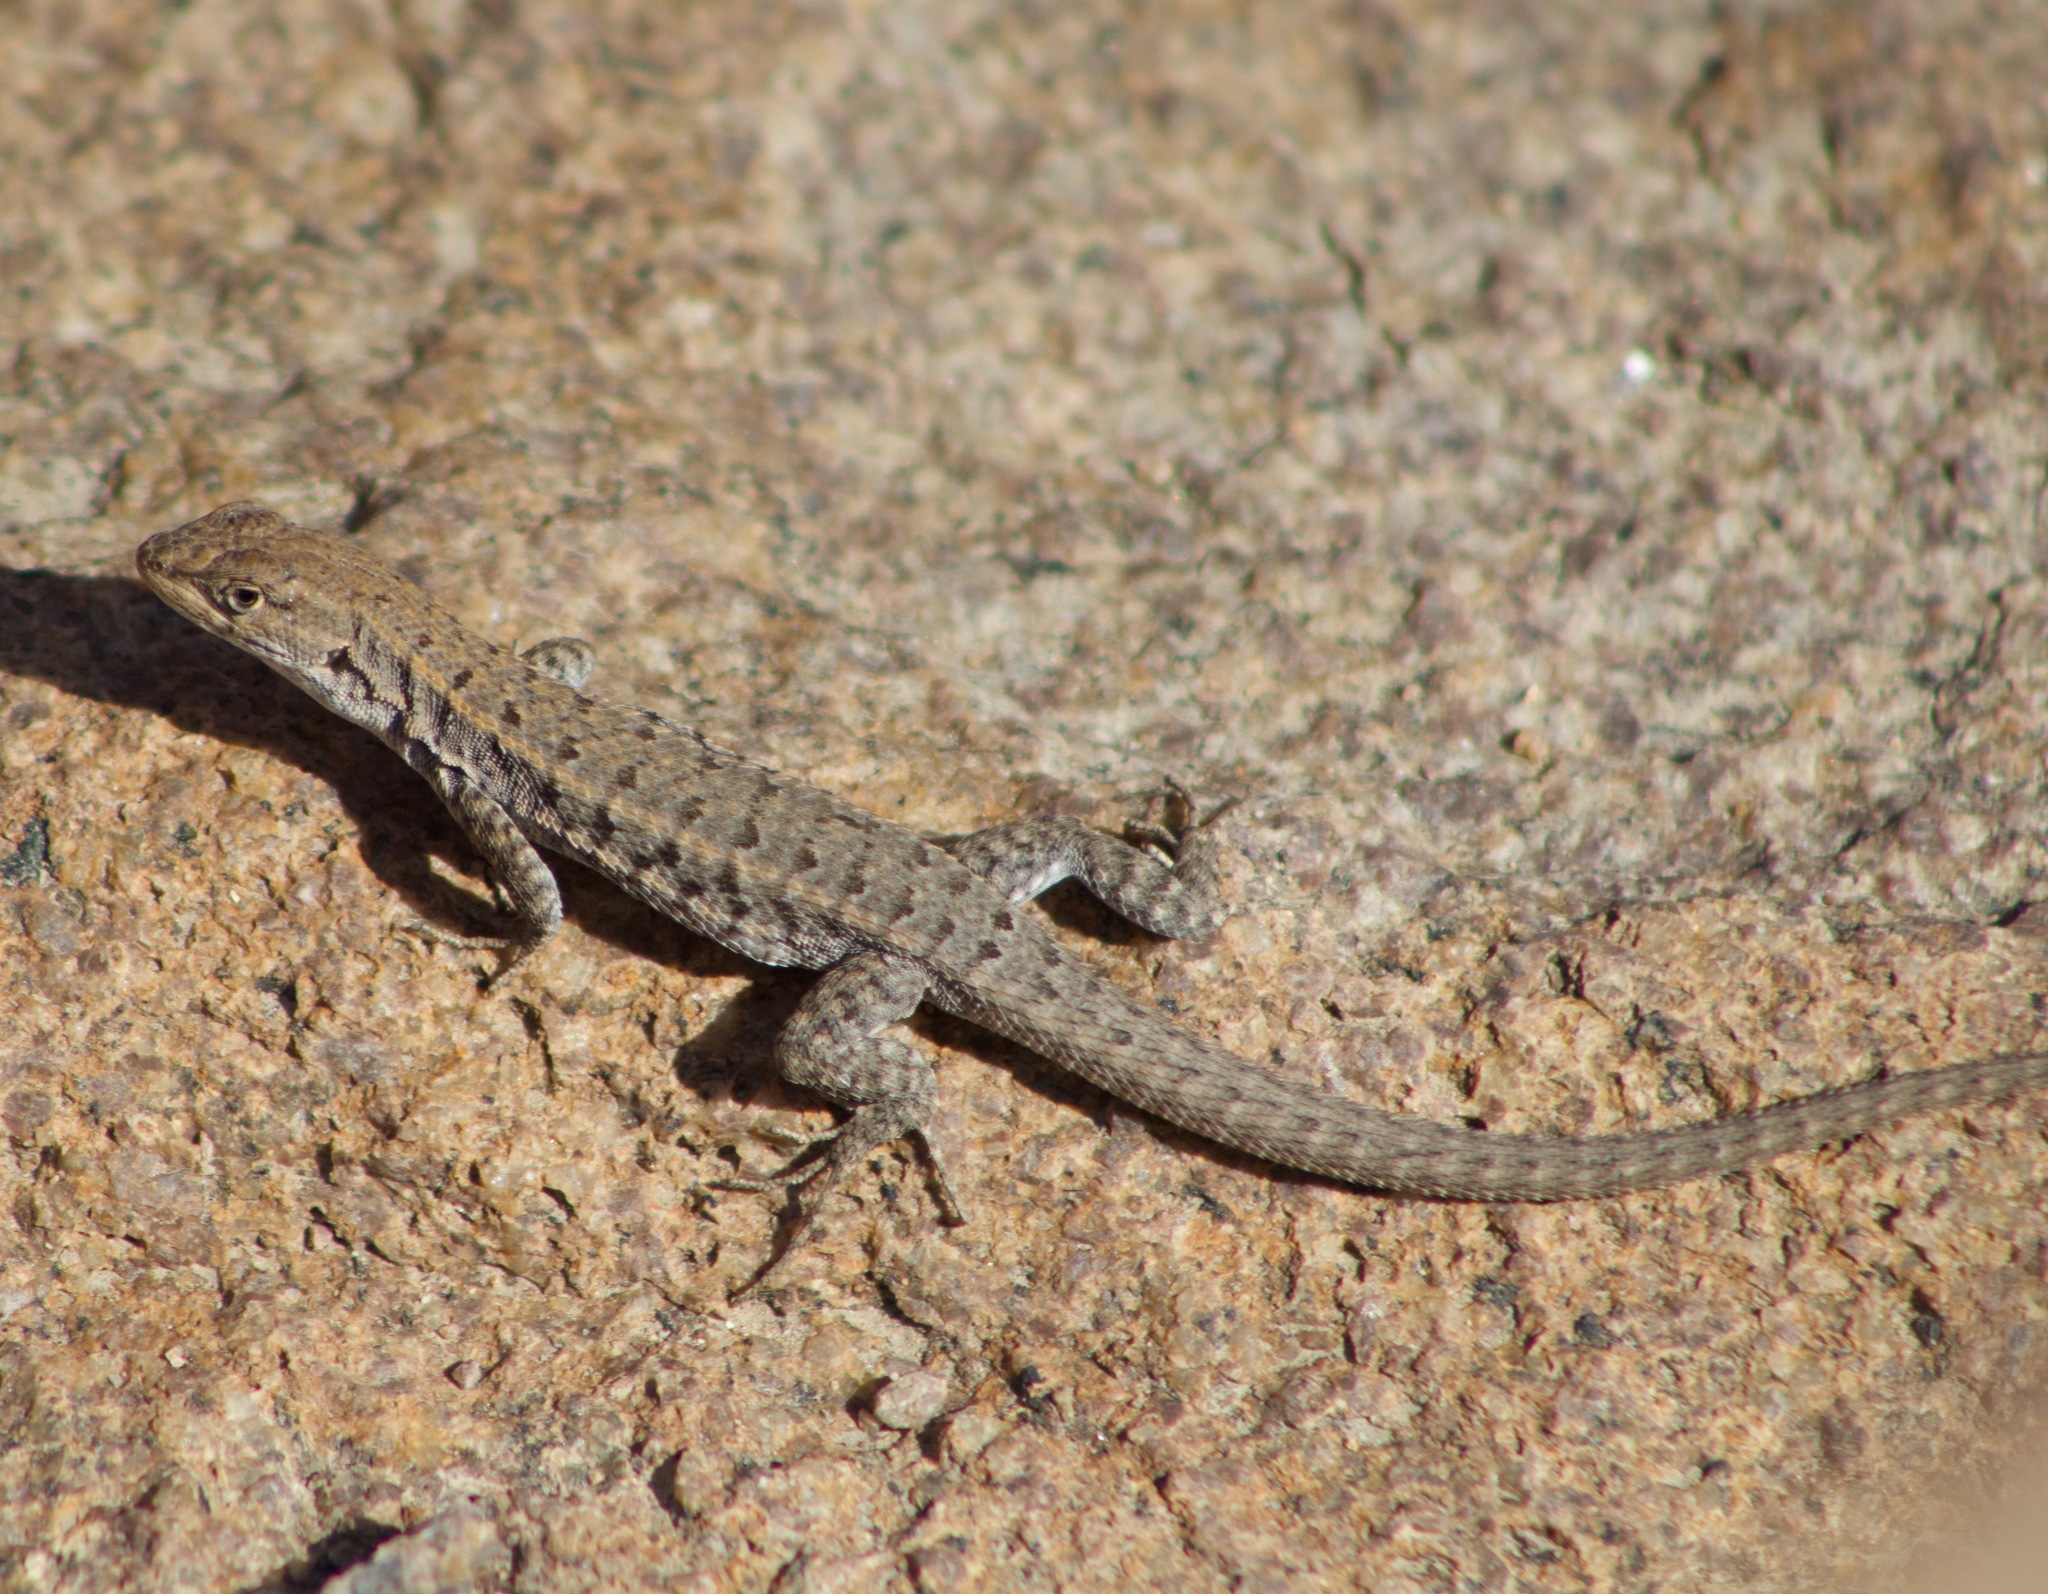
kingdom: Animalia
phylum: Chordata
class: Squamata
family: Liolaemidae
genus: Liolaemus
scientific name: Liolaemus platei
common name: Braided tree iguana
